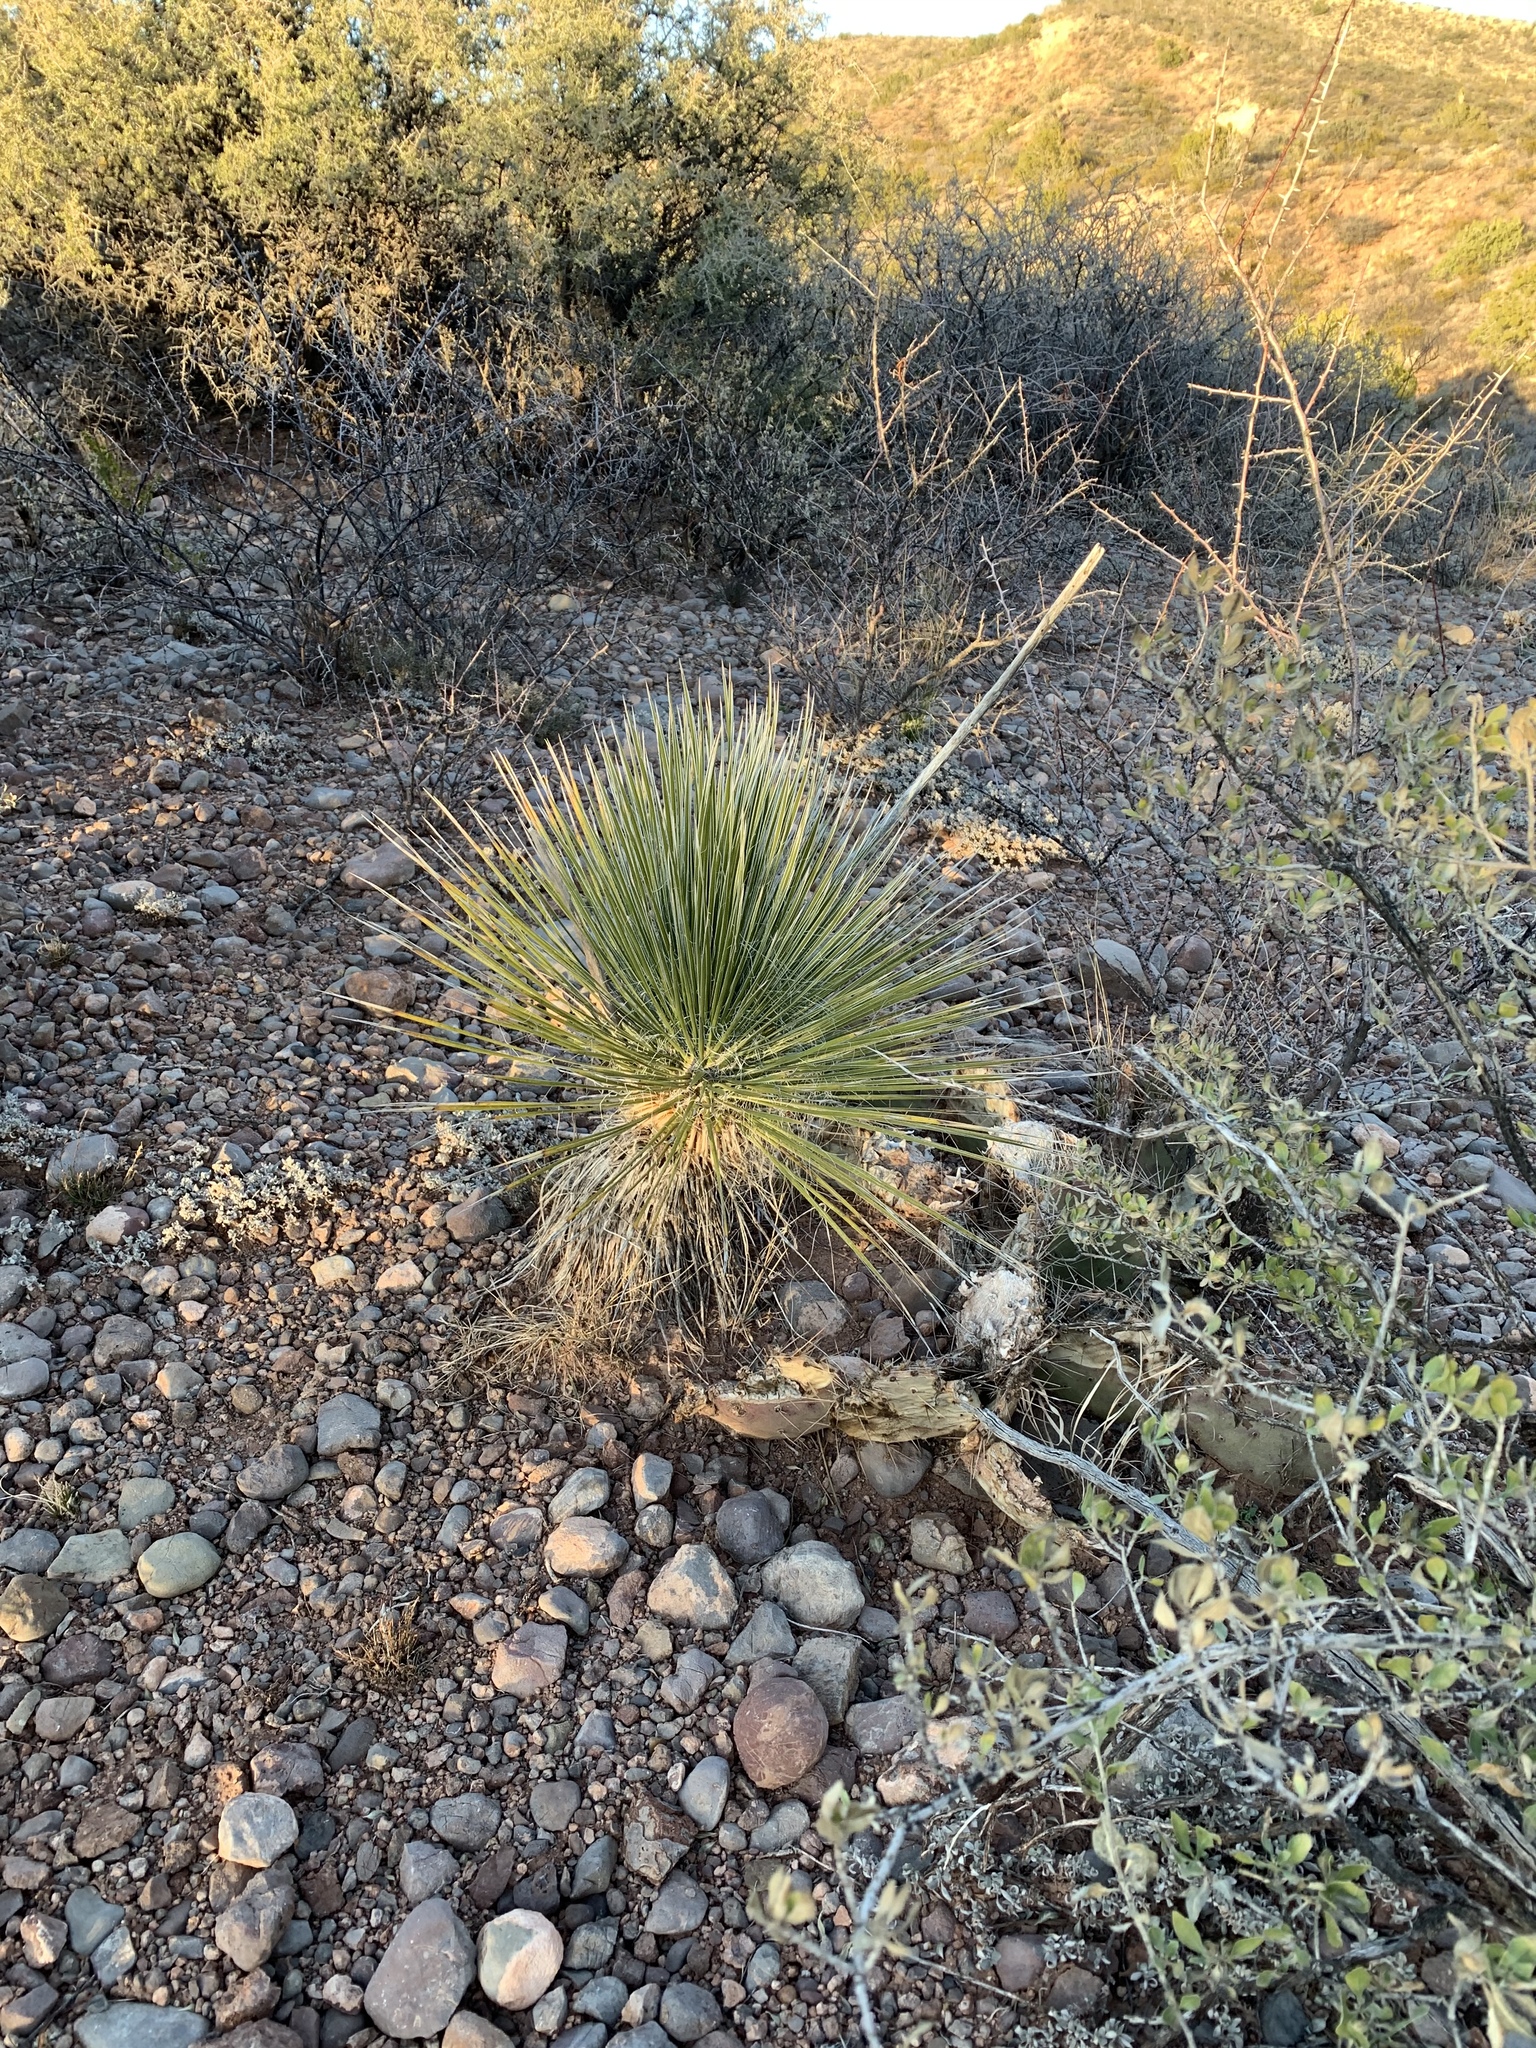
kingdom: Plantae
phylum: Tracheophyta
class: Liliopsida
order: Asparagales
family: Asparagaceae
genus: Yucca
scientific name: Yucca elata
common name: Palmella
